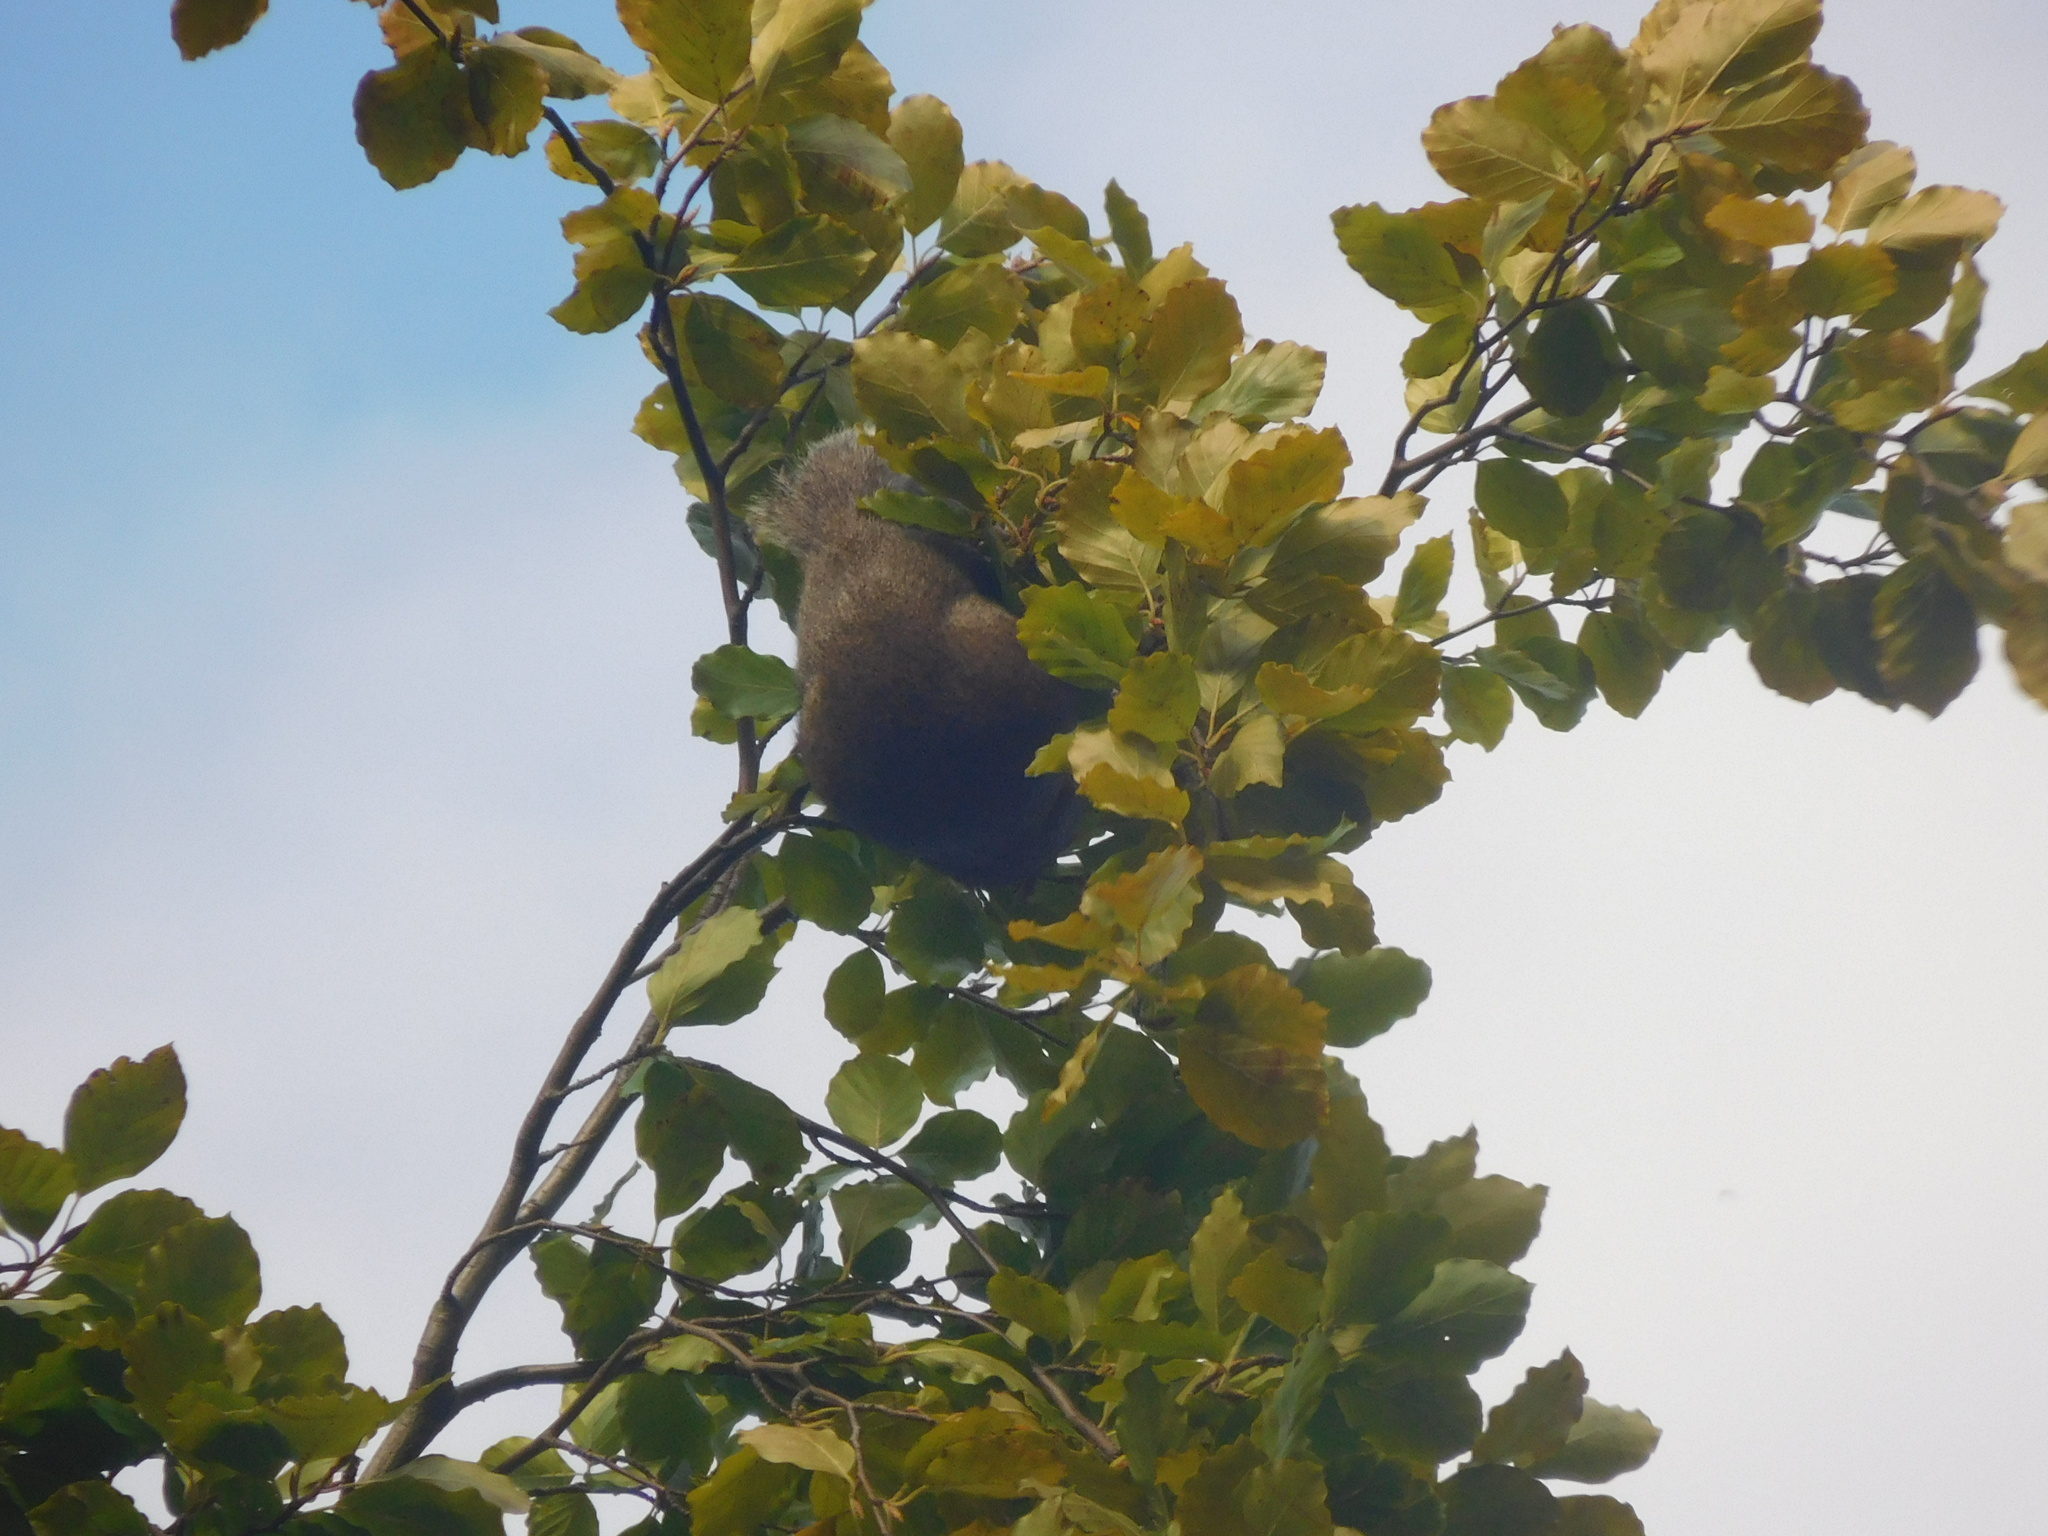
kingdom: Animalia
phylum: Chordata
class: Mammalia
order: Rodentia
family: Sciuridae
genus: Sciurus
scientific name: Sciurus carolinensis
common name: Eastern gray squirrel
